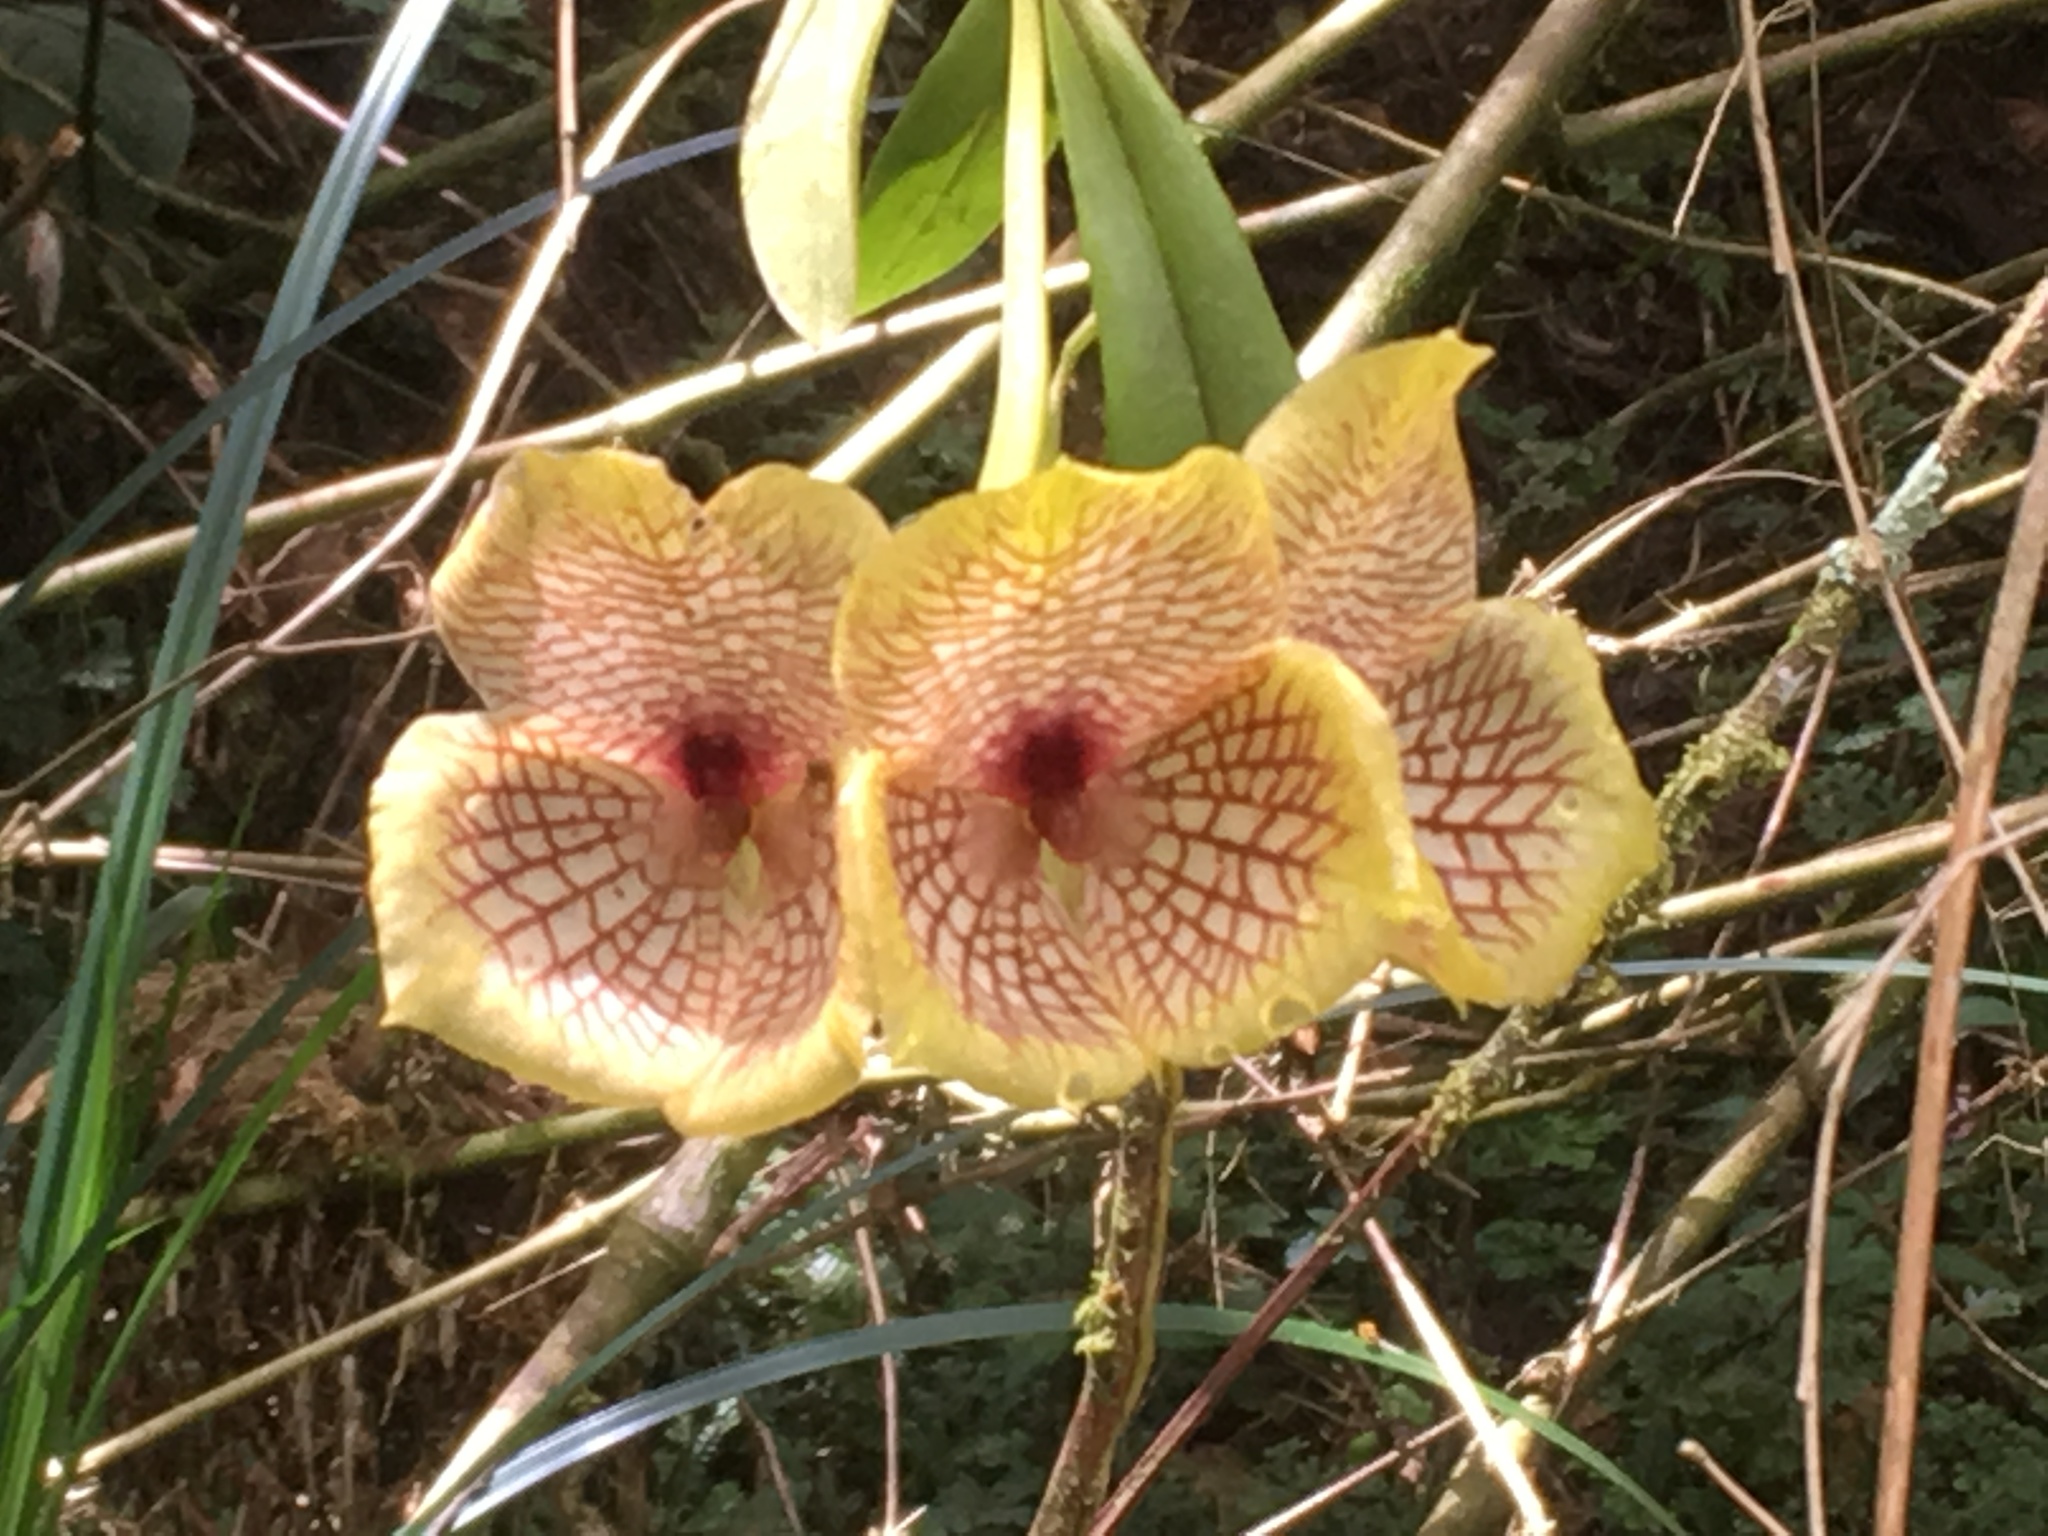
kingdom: Plantae
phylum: Tracheophyta
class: Liliopsida
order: Asparagales
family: Orchidaceae
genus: Telipogon
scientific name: Telipogon hausmannianus
